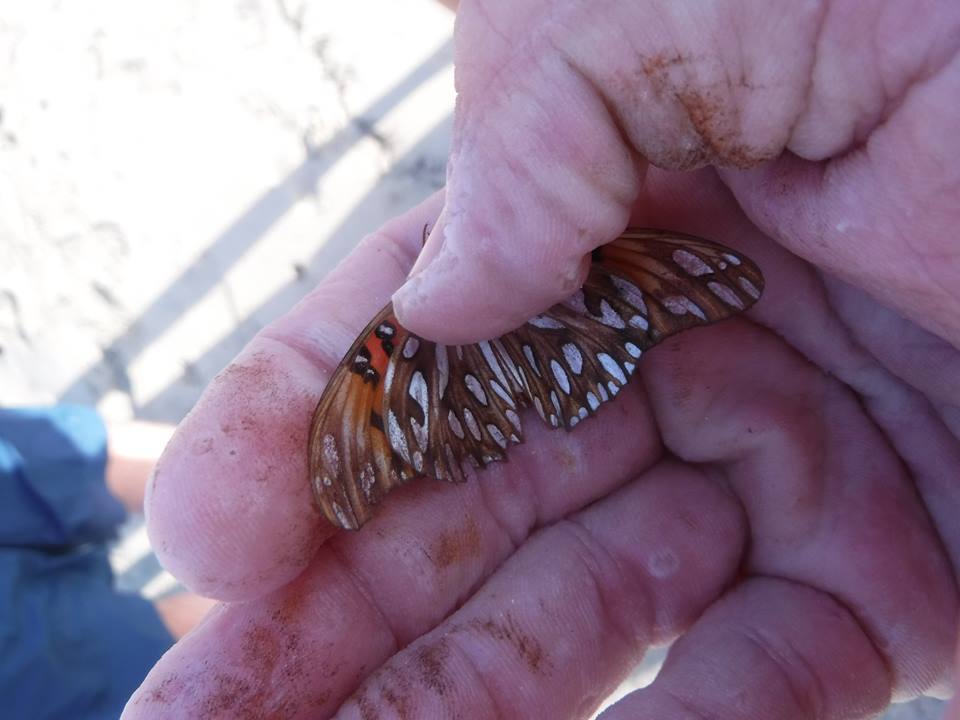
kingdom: Animalia
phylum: Arthropoda
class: Insecta
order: Lepidoptera
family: Nymphalidae
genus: Dione
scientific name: Dione vanillae
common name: Gulf fritillary
